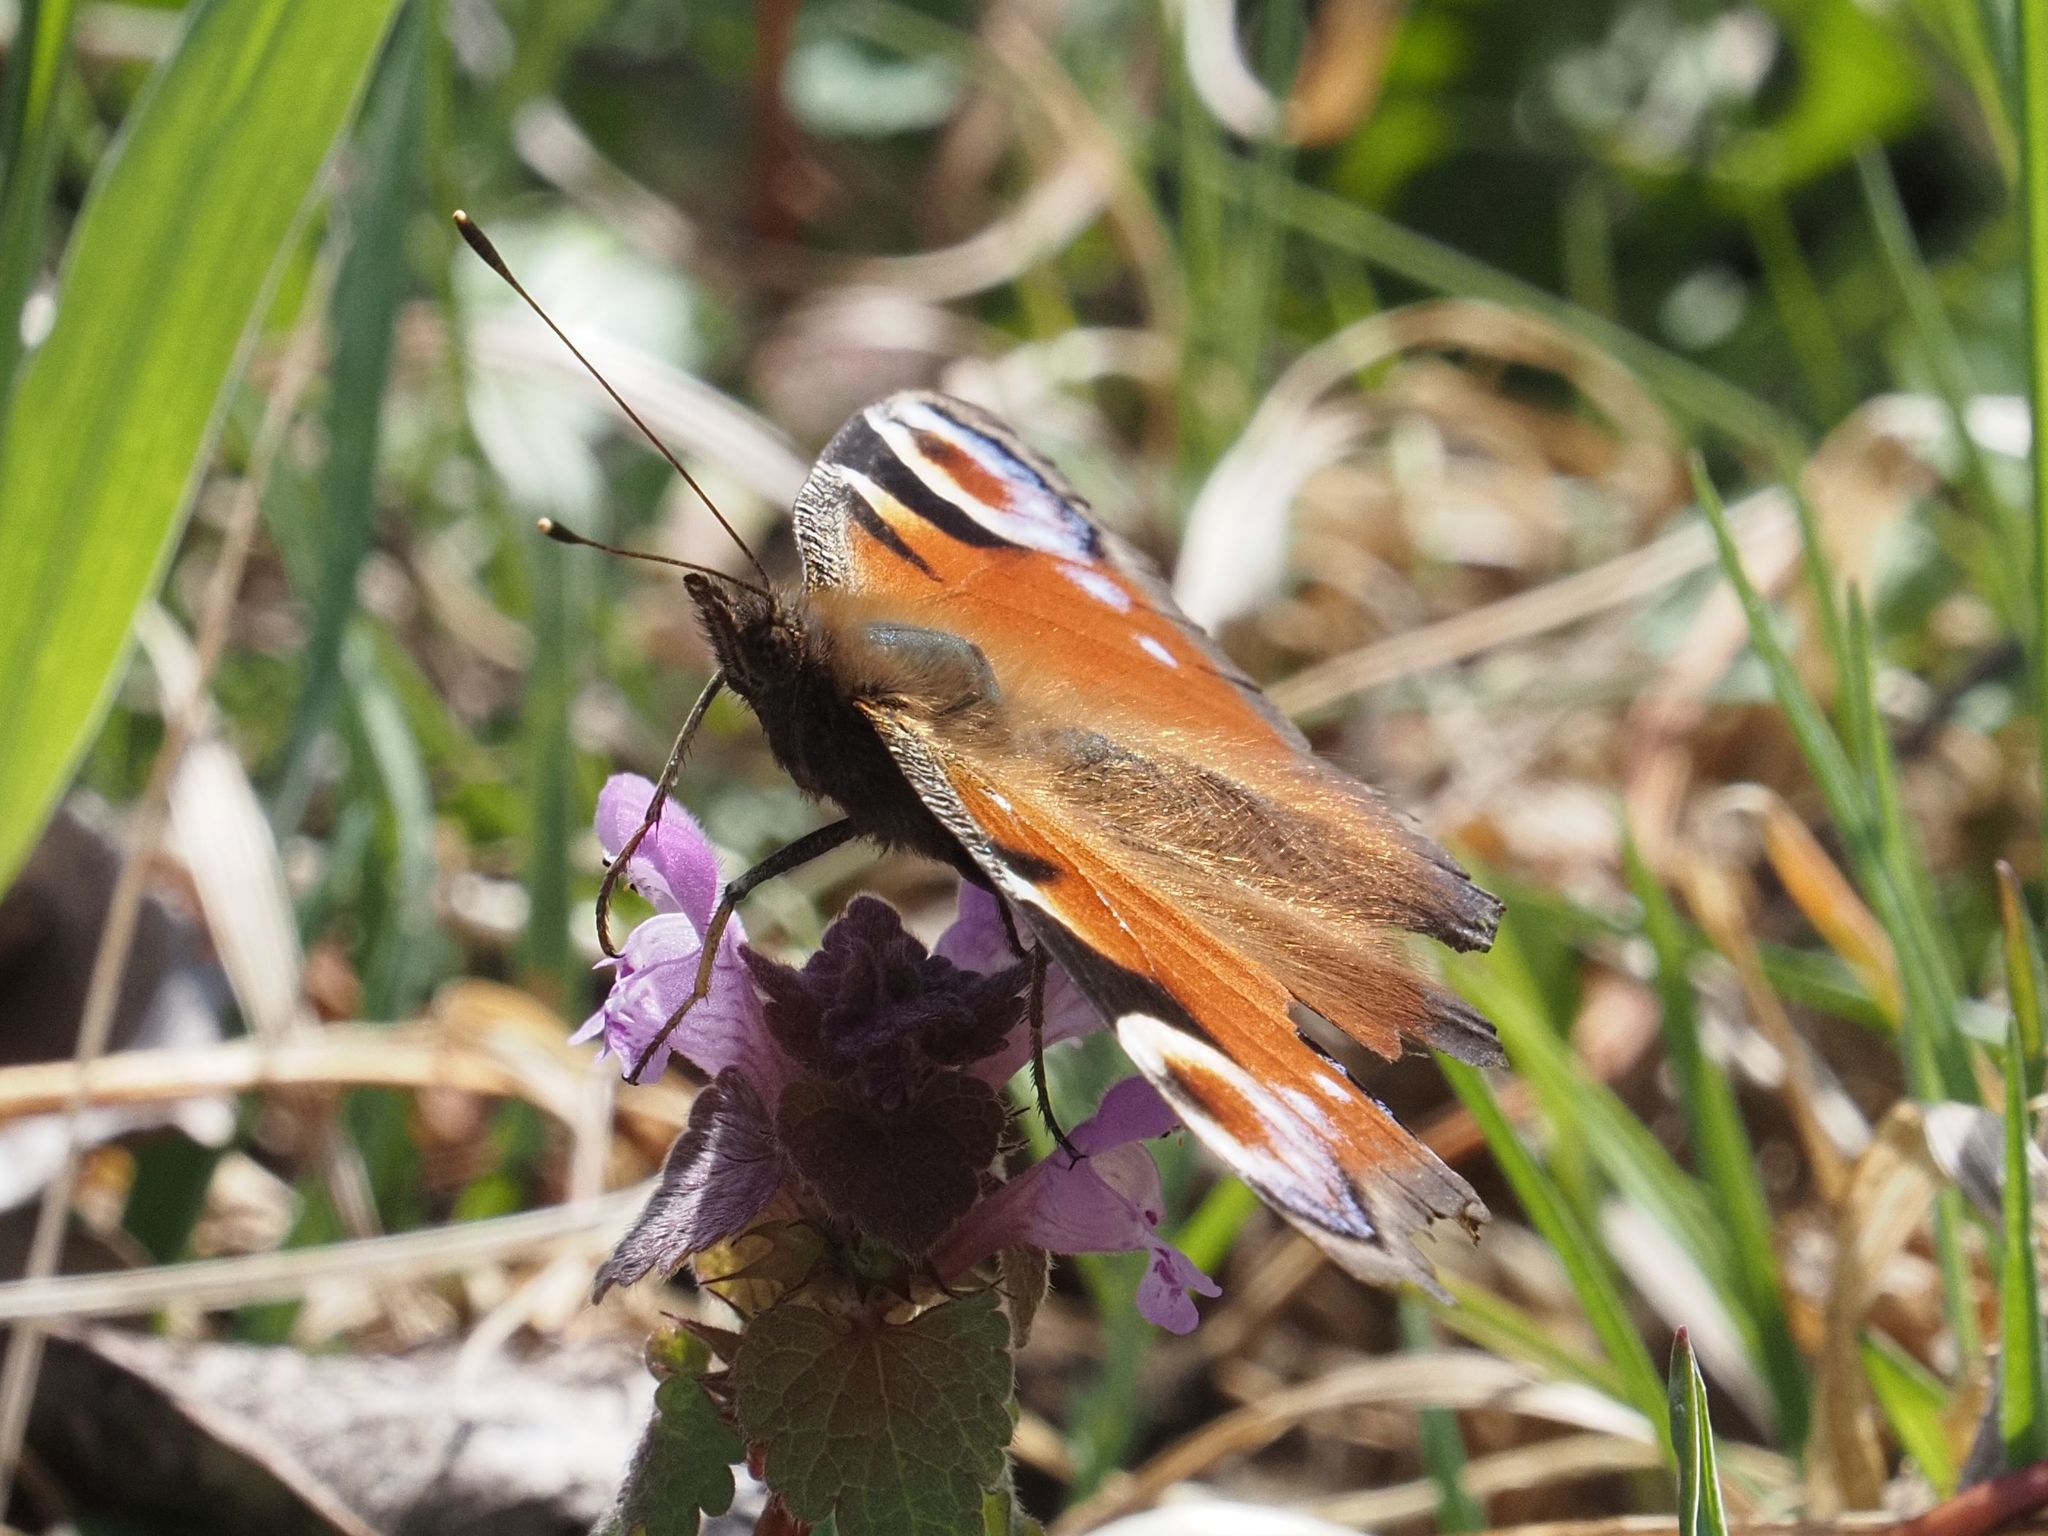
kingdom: Animalia
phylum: Arthropoda
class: Insecta
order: Lepidoptera
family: Nymphalidae
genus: Aglais
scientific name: Aglais io
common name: Peacock
